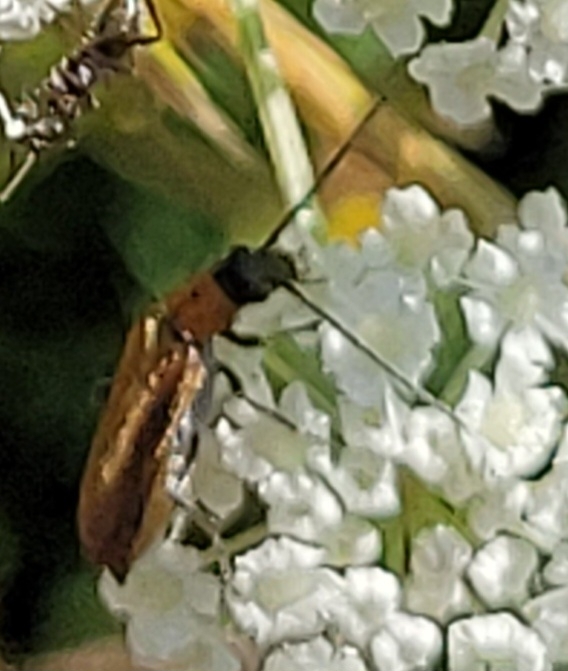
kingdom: Animalia
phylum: Arthropoda
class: Insecta
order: Coleoptera
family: Oedemeridae
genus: Anogcodes
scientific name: Anogcodes rufiventris
